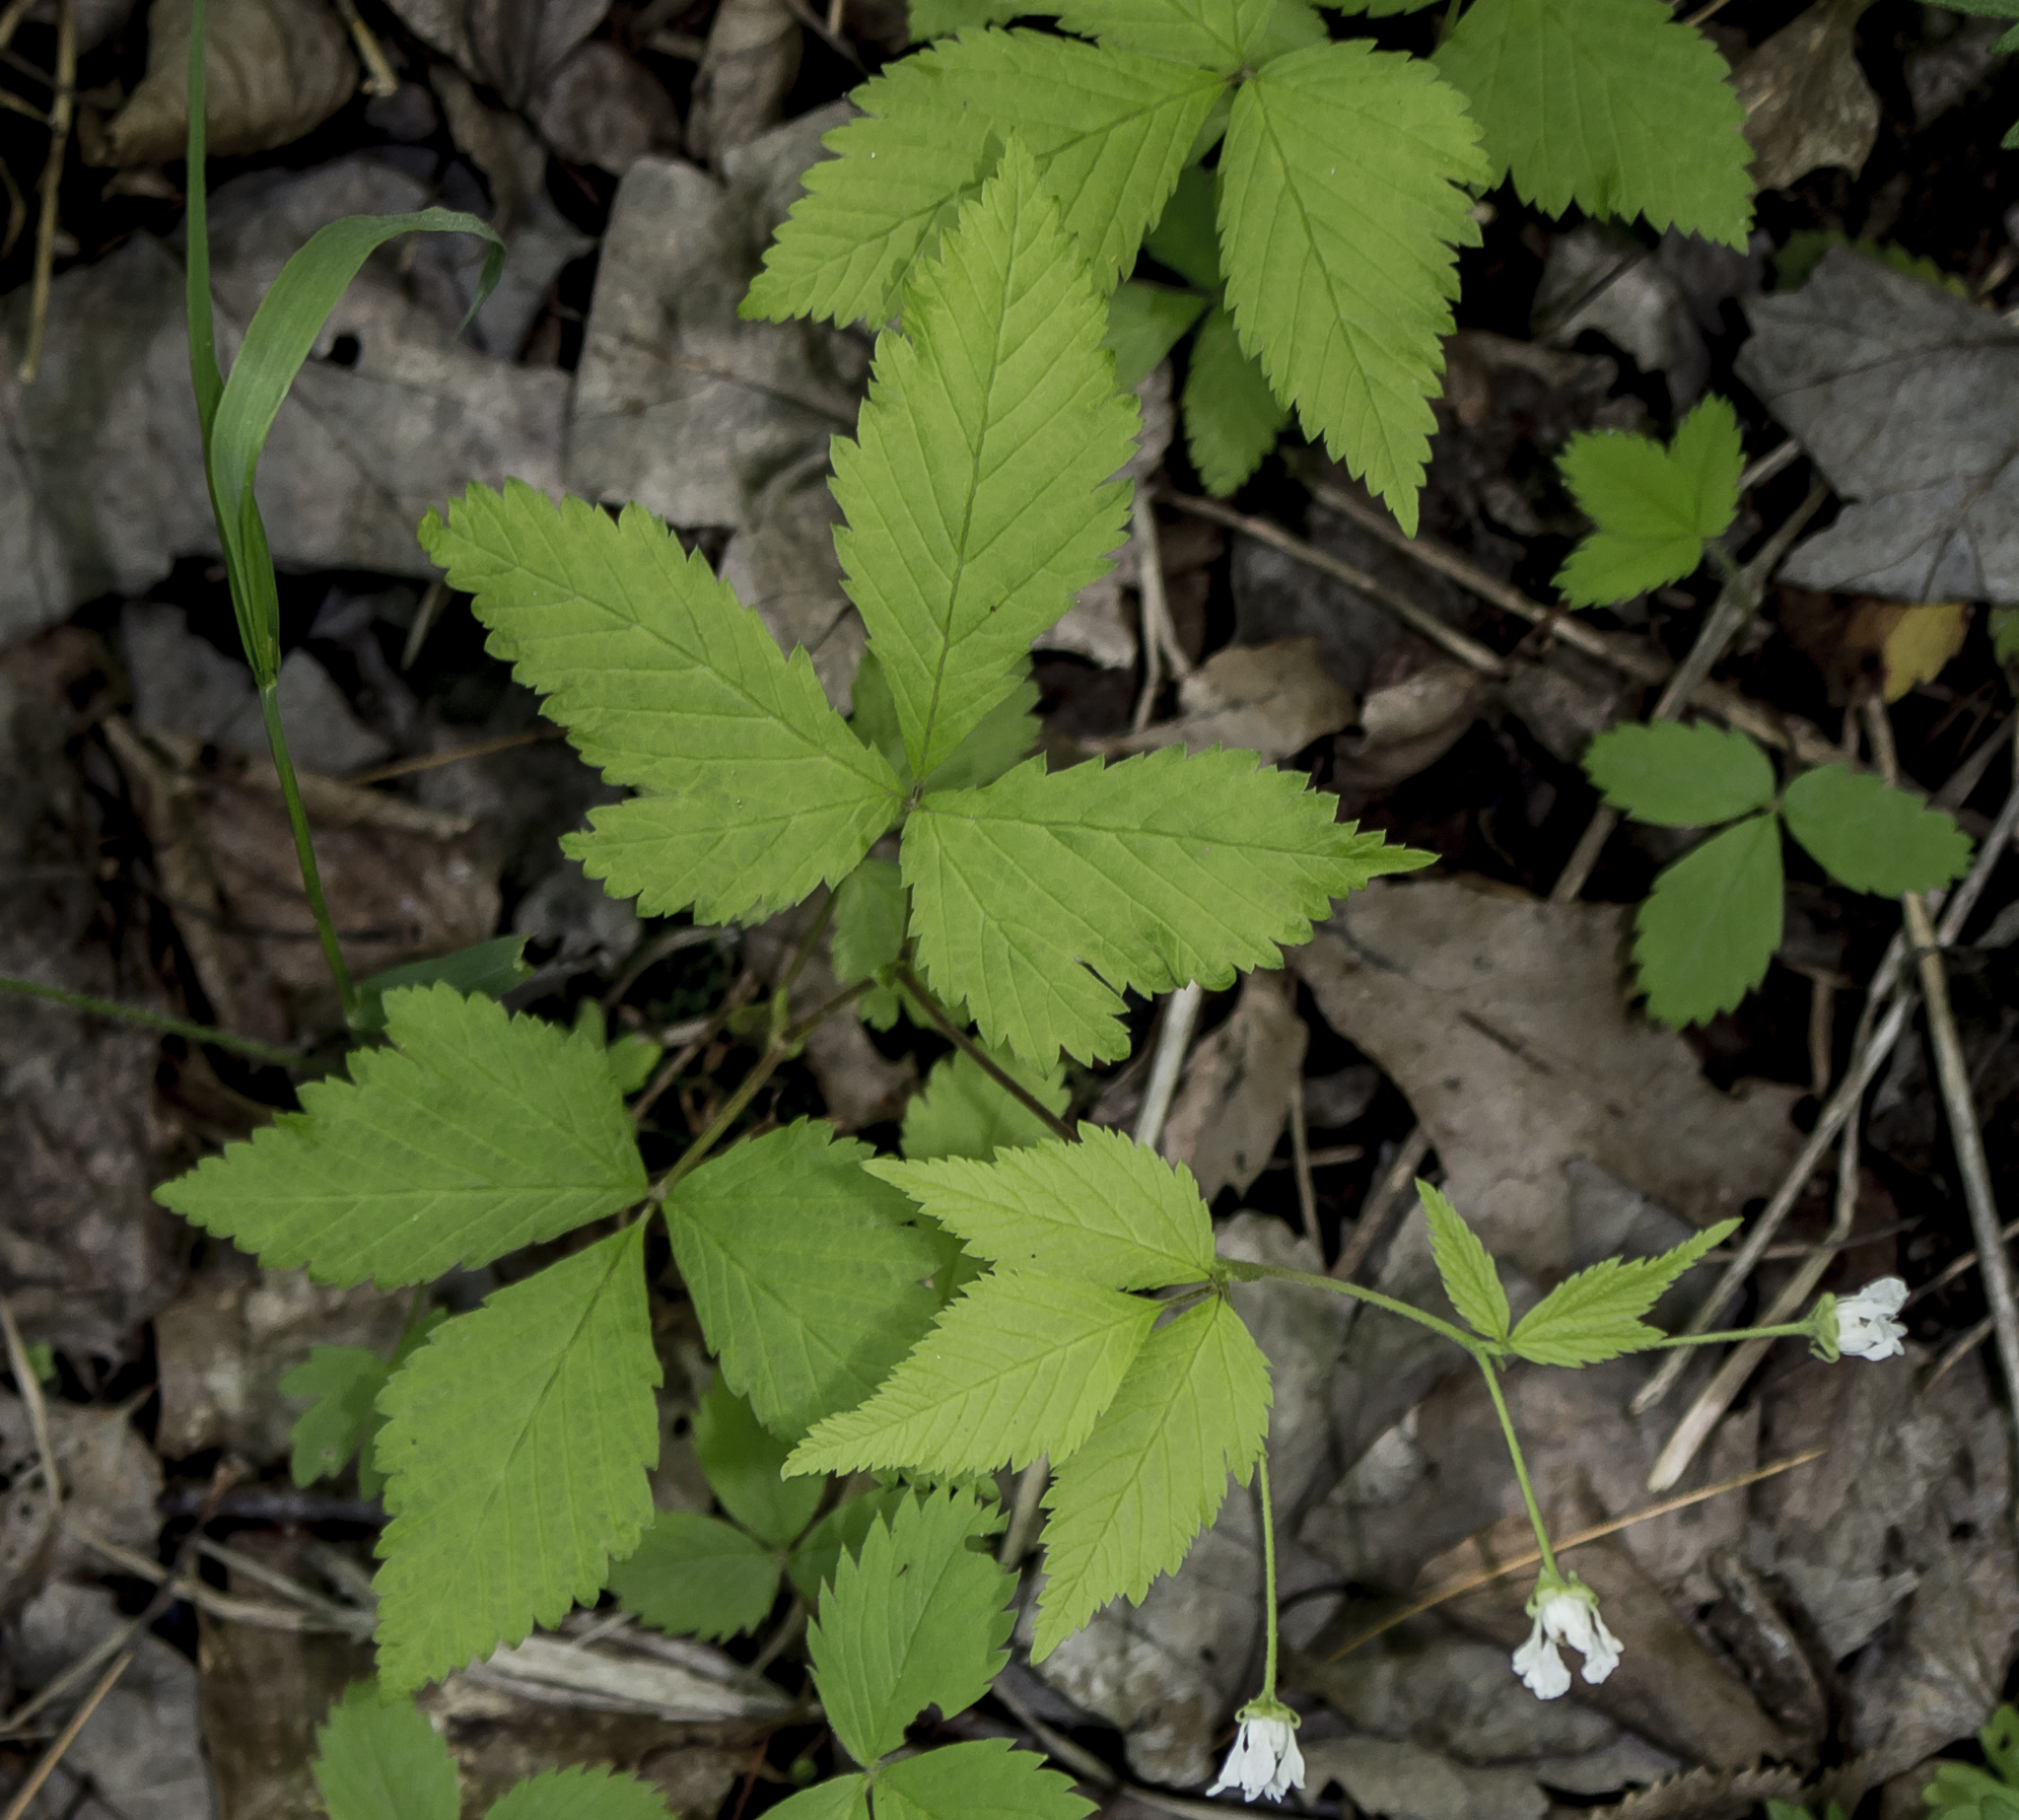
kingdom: Plantae
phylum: Tracheophyta
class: Magnoliopsida
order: Rosales
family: Rosaceae
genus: Rubus
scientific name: Rubus pubescens
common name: Dwarf raspberry
